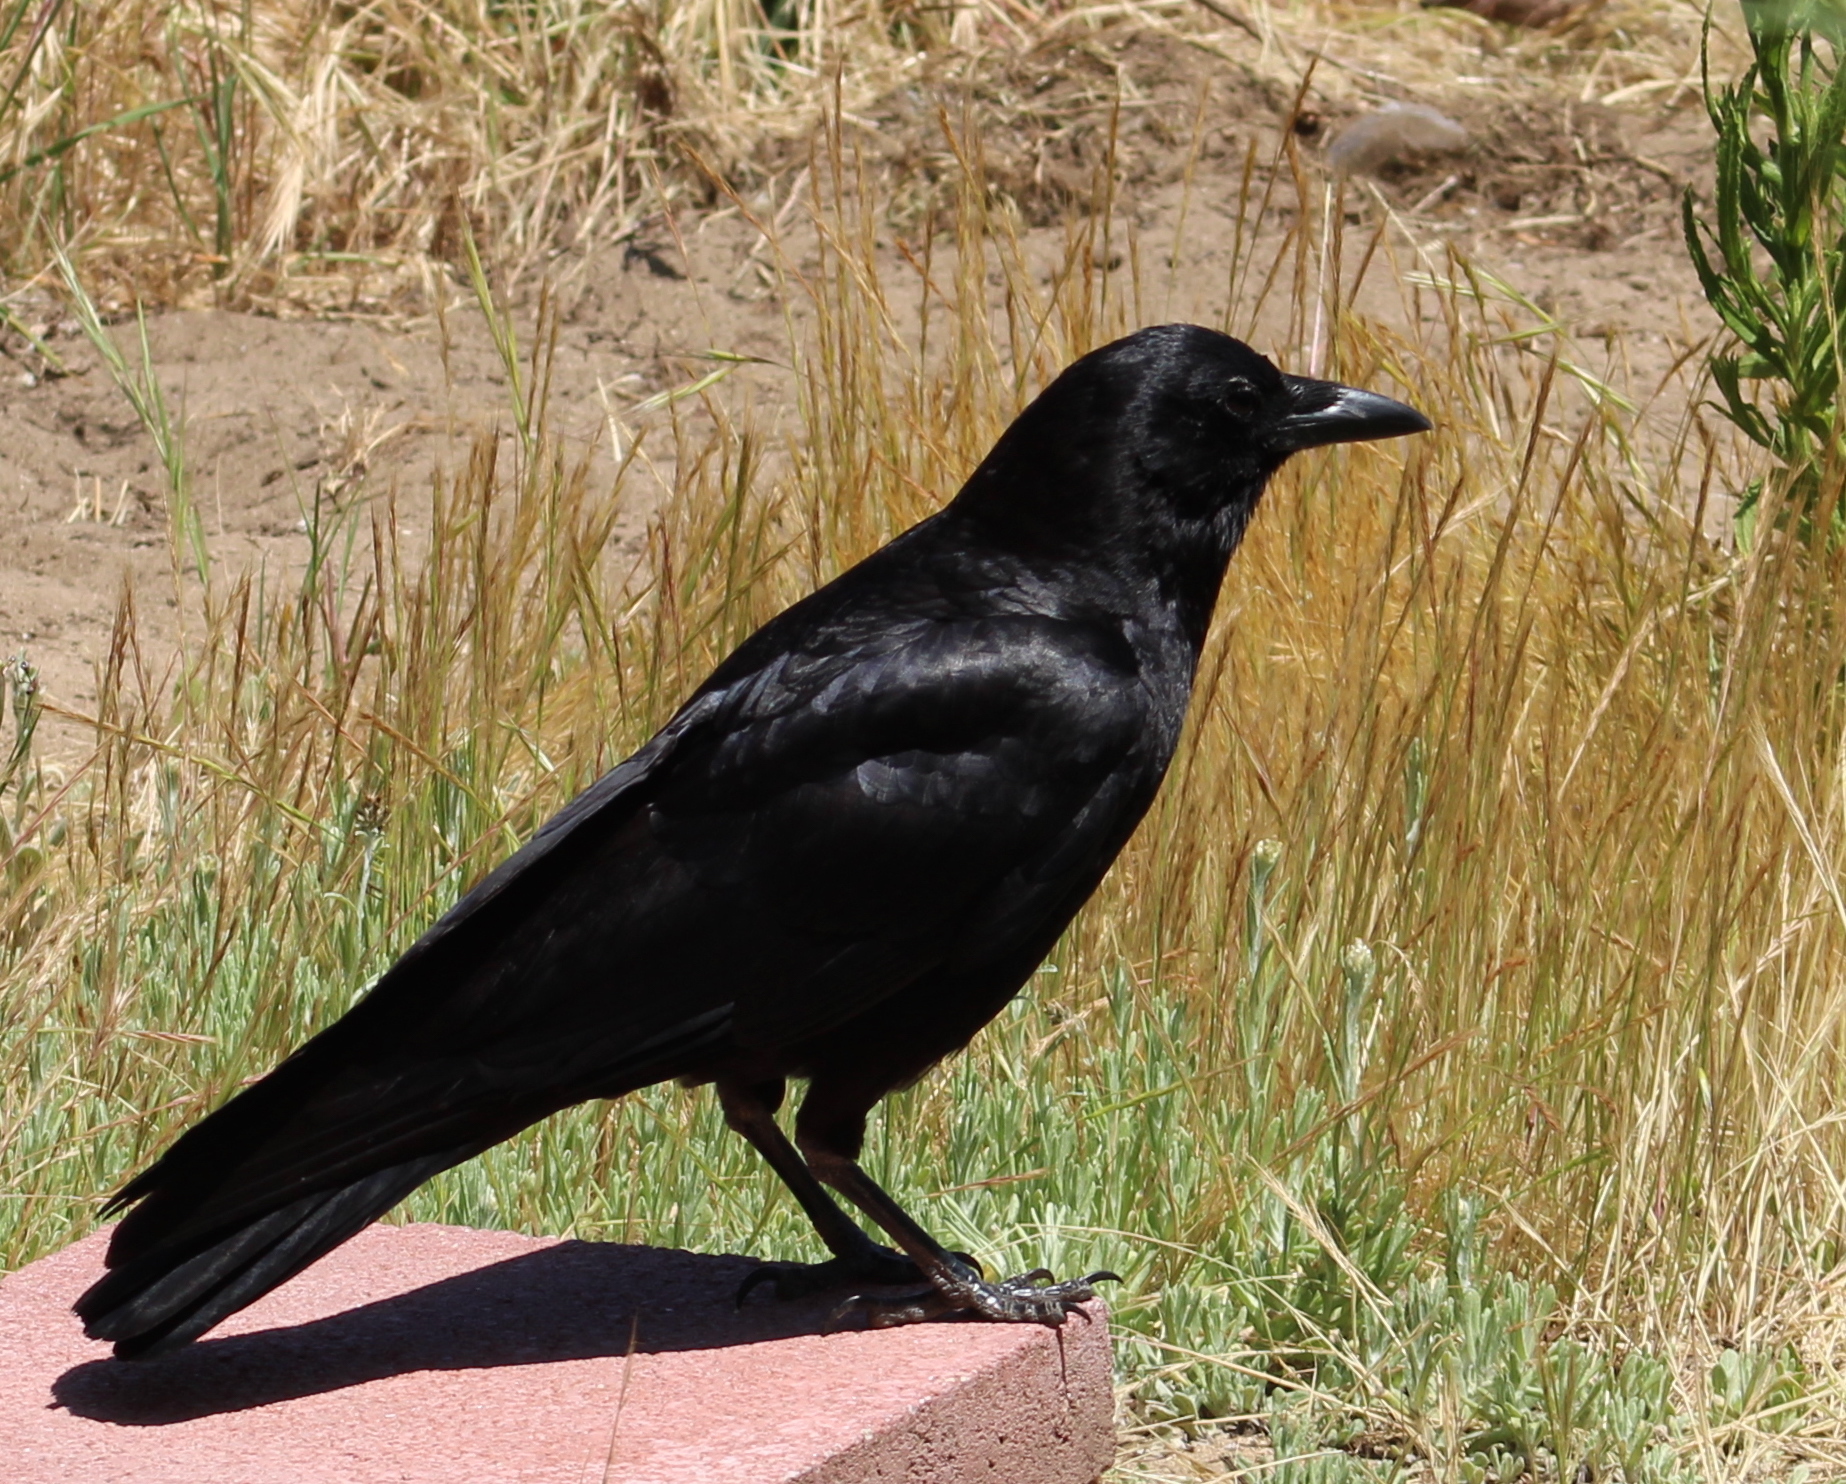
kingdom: Animalia
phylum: Chordata
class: Aves
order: Passeriformes
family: Corvidae
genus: Corvus
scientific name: Corvus brachyrhynchos
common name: American crow
